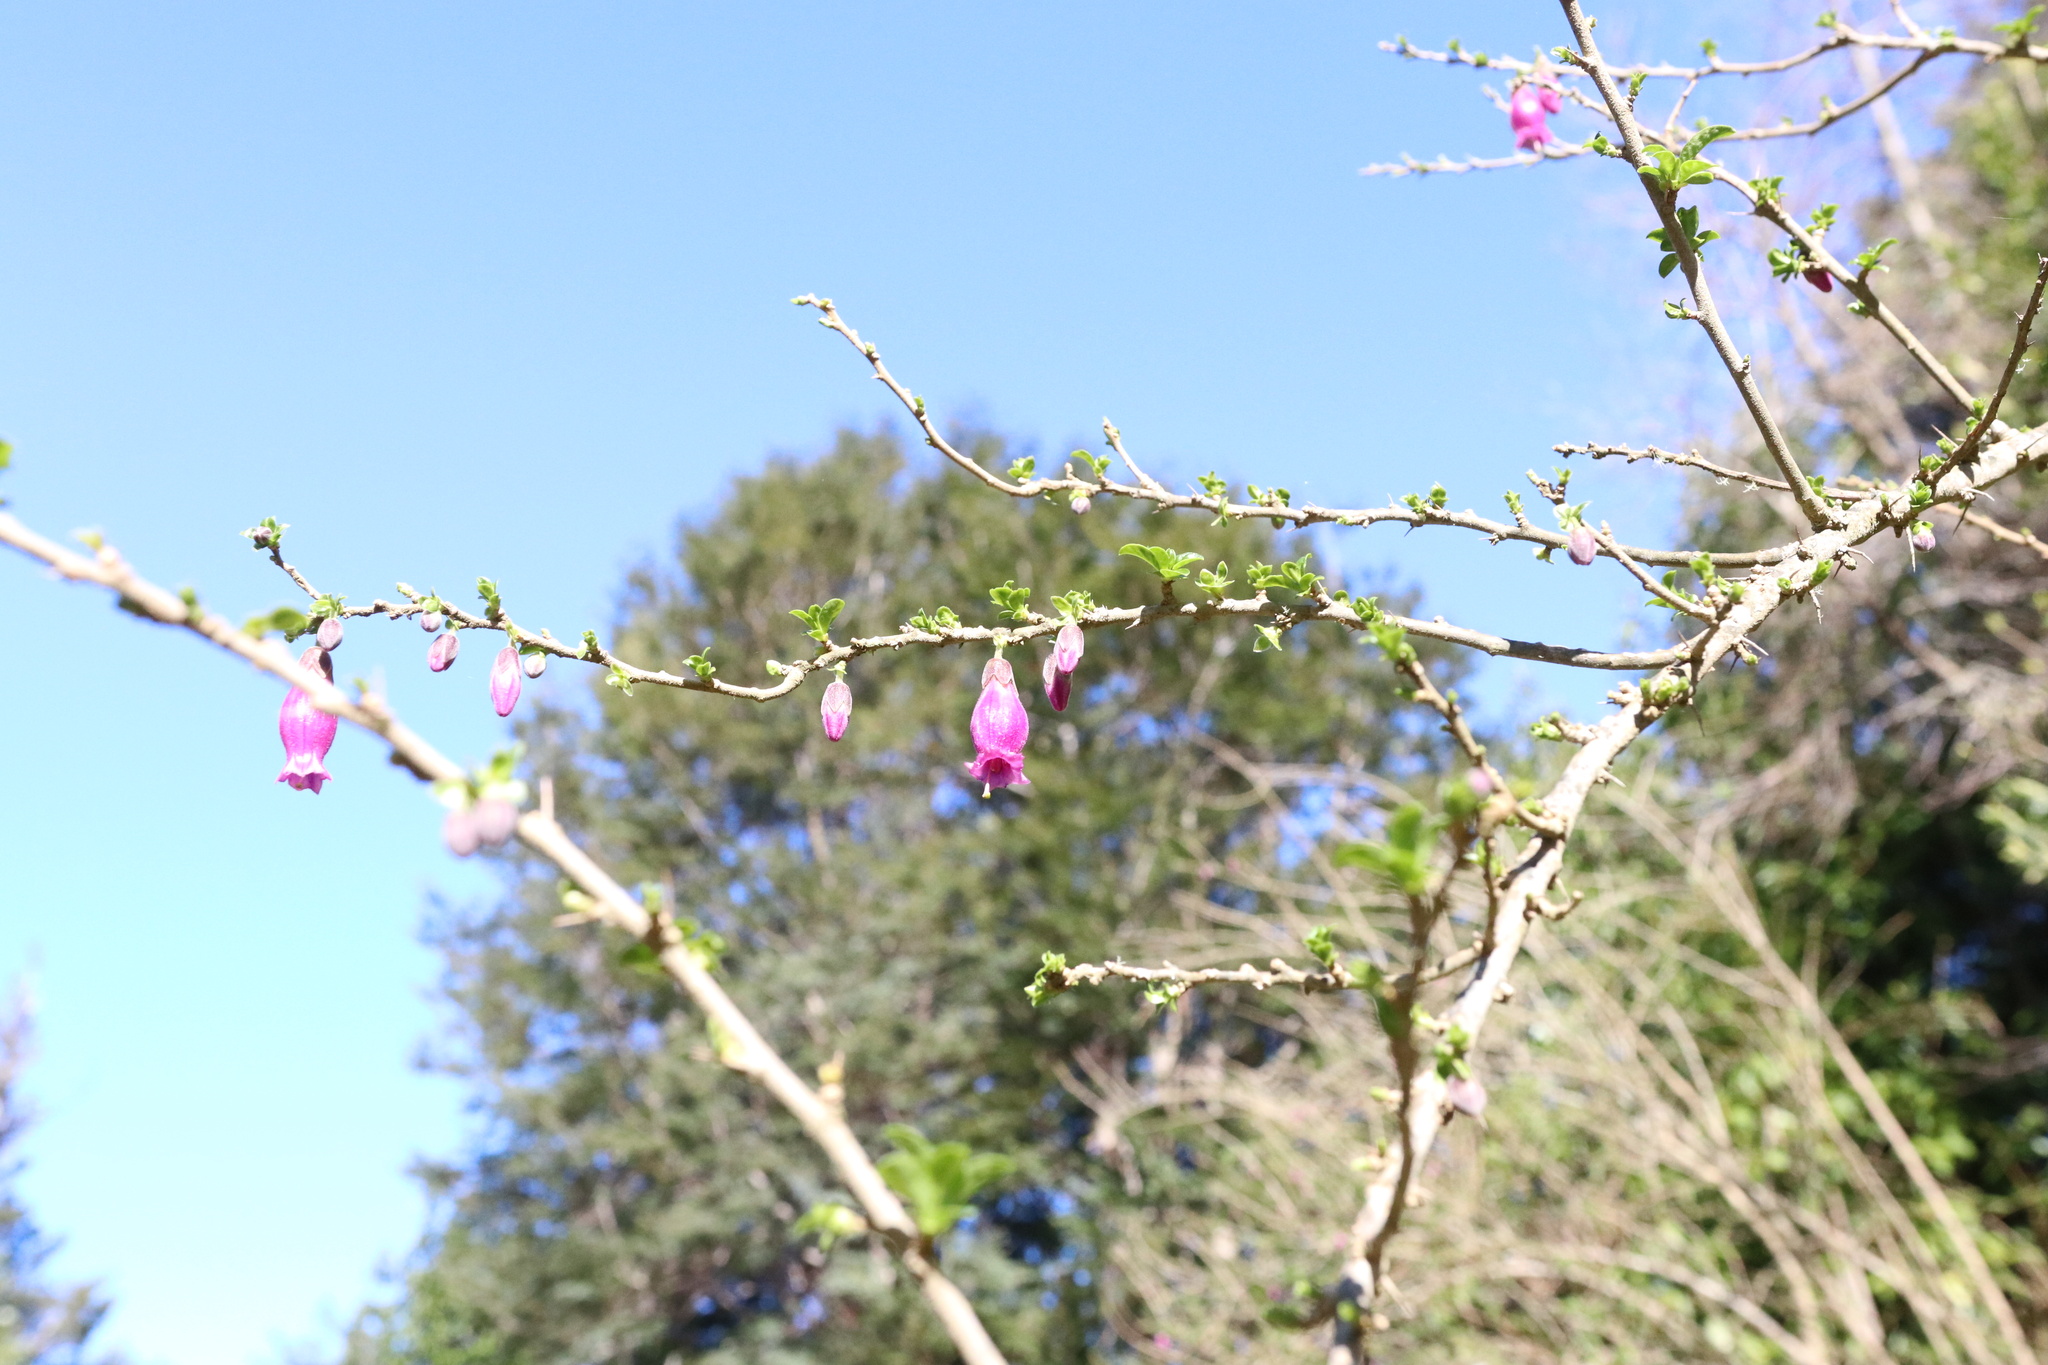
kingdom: Plantae
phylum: Tracheophyta
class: Magnoliopsida
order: Solanales
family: Solanaceae
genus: Latua
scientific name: Latua pubiflora
